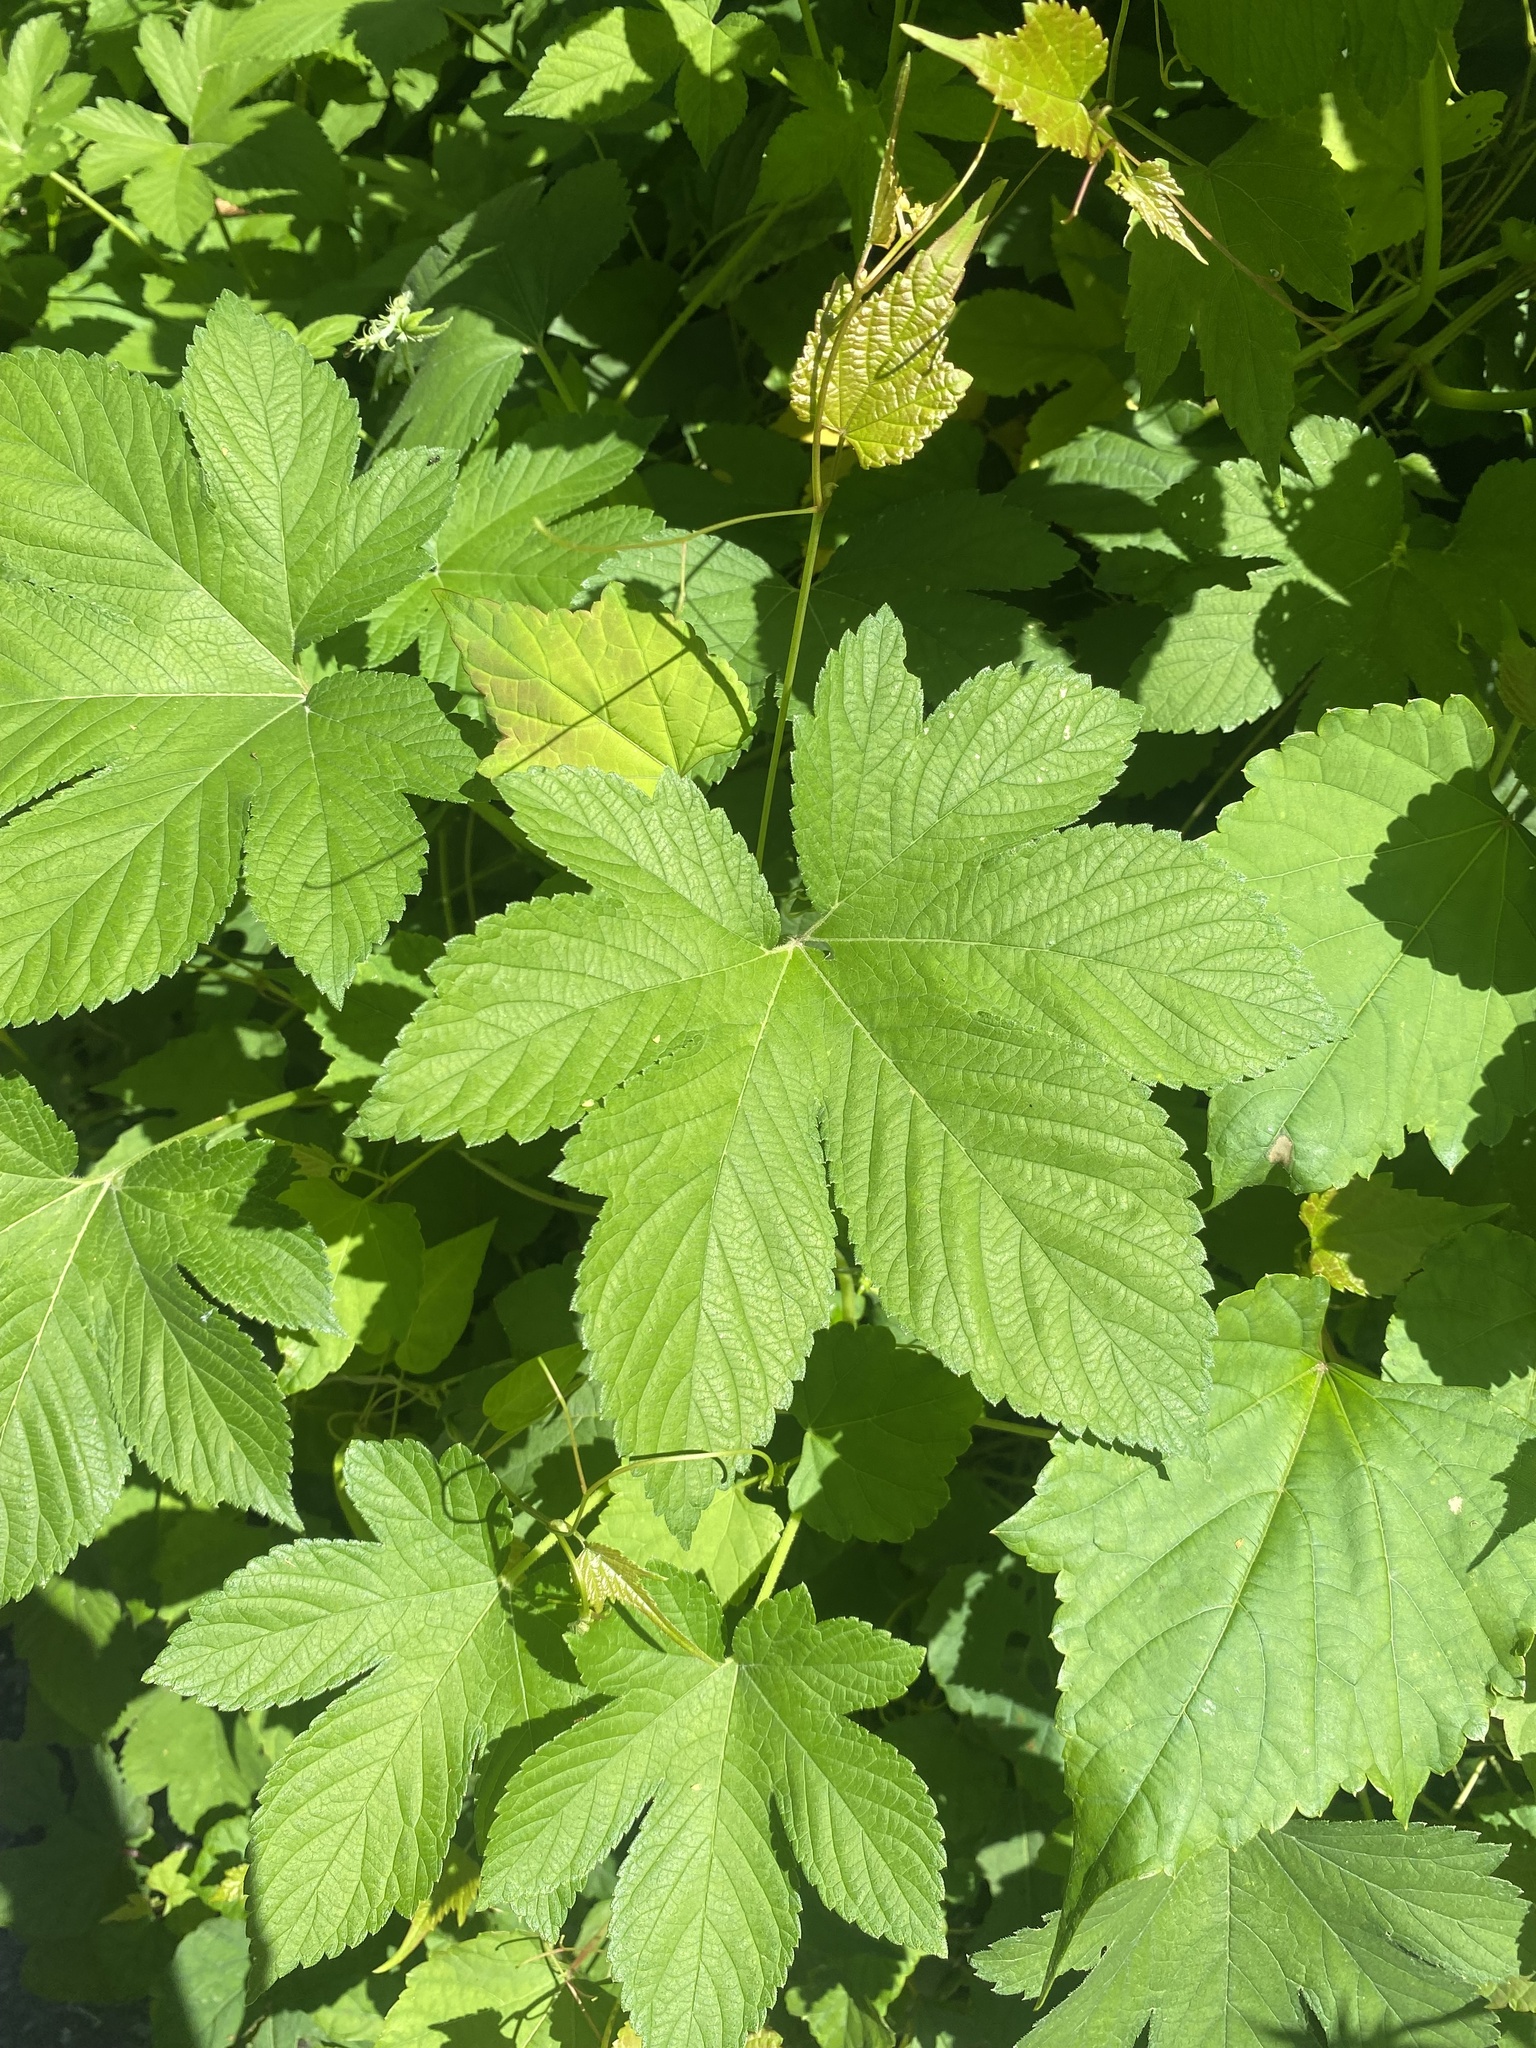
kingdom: Plantae
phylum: Tracheophyta
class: Magnoliopsida
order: Rosales
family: Cannabaceae
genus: Humulus
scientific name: Humulus scandens
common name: Japanese hop
